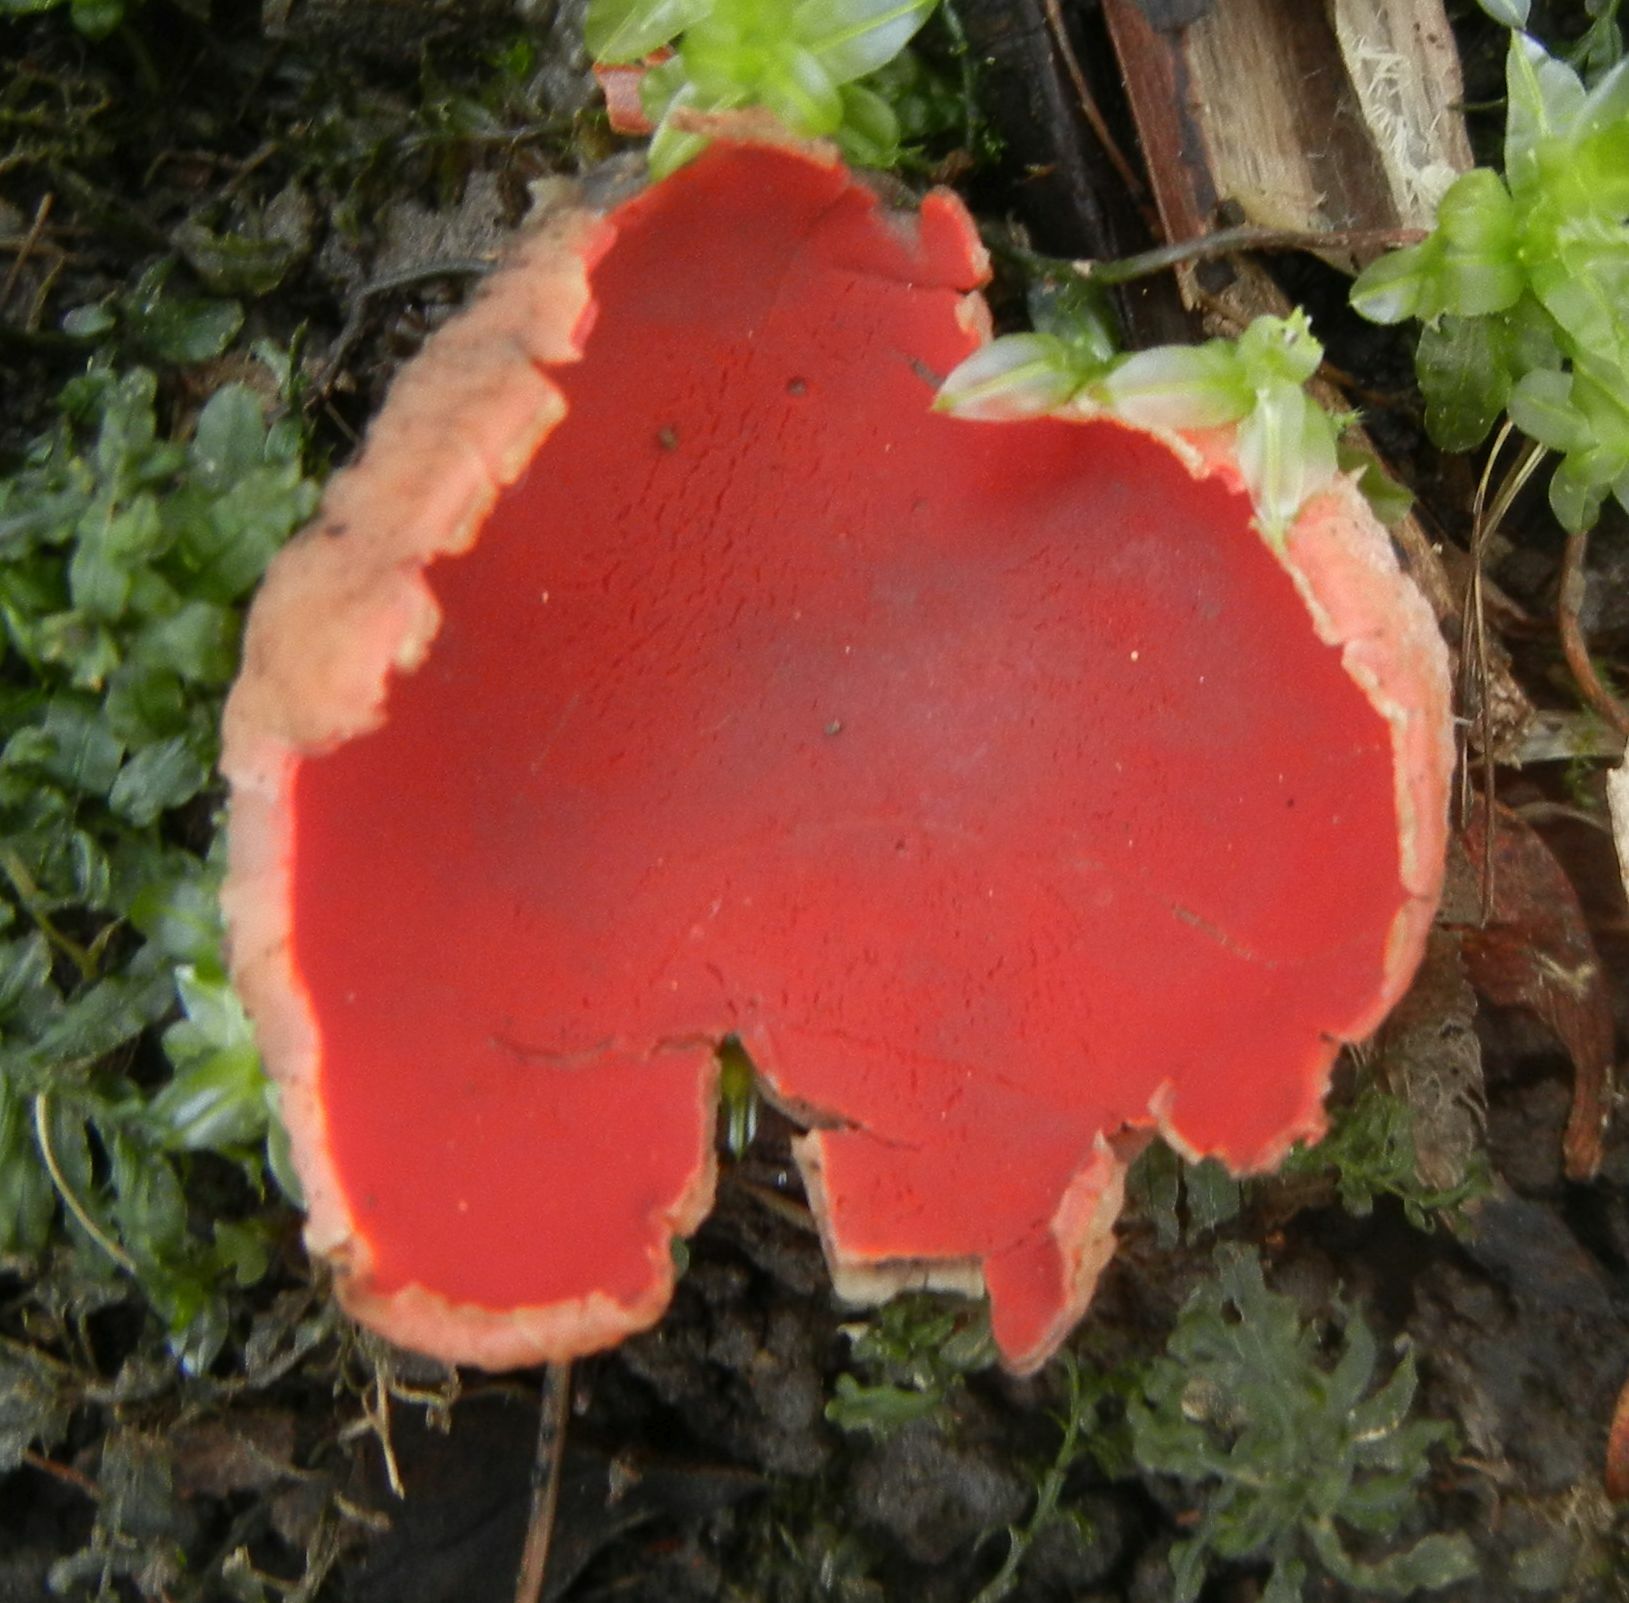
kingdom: Fungi
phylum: Ascomycota
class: Pezizomycetes
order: Pezizales
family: Sarcoscyphaceae
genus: Sarcoscypha
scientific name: Sarcoscypha
